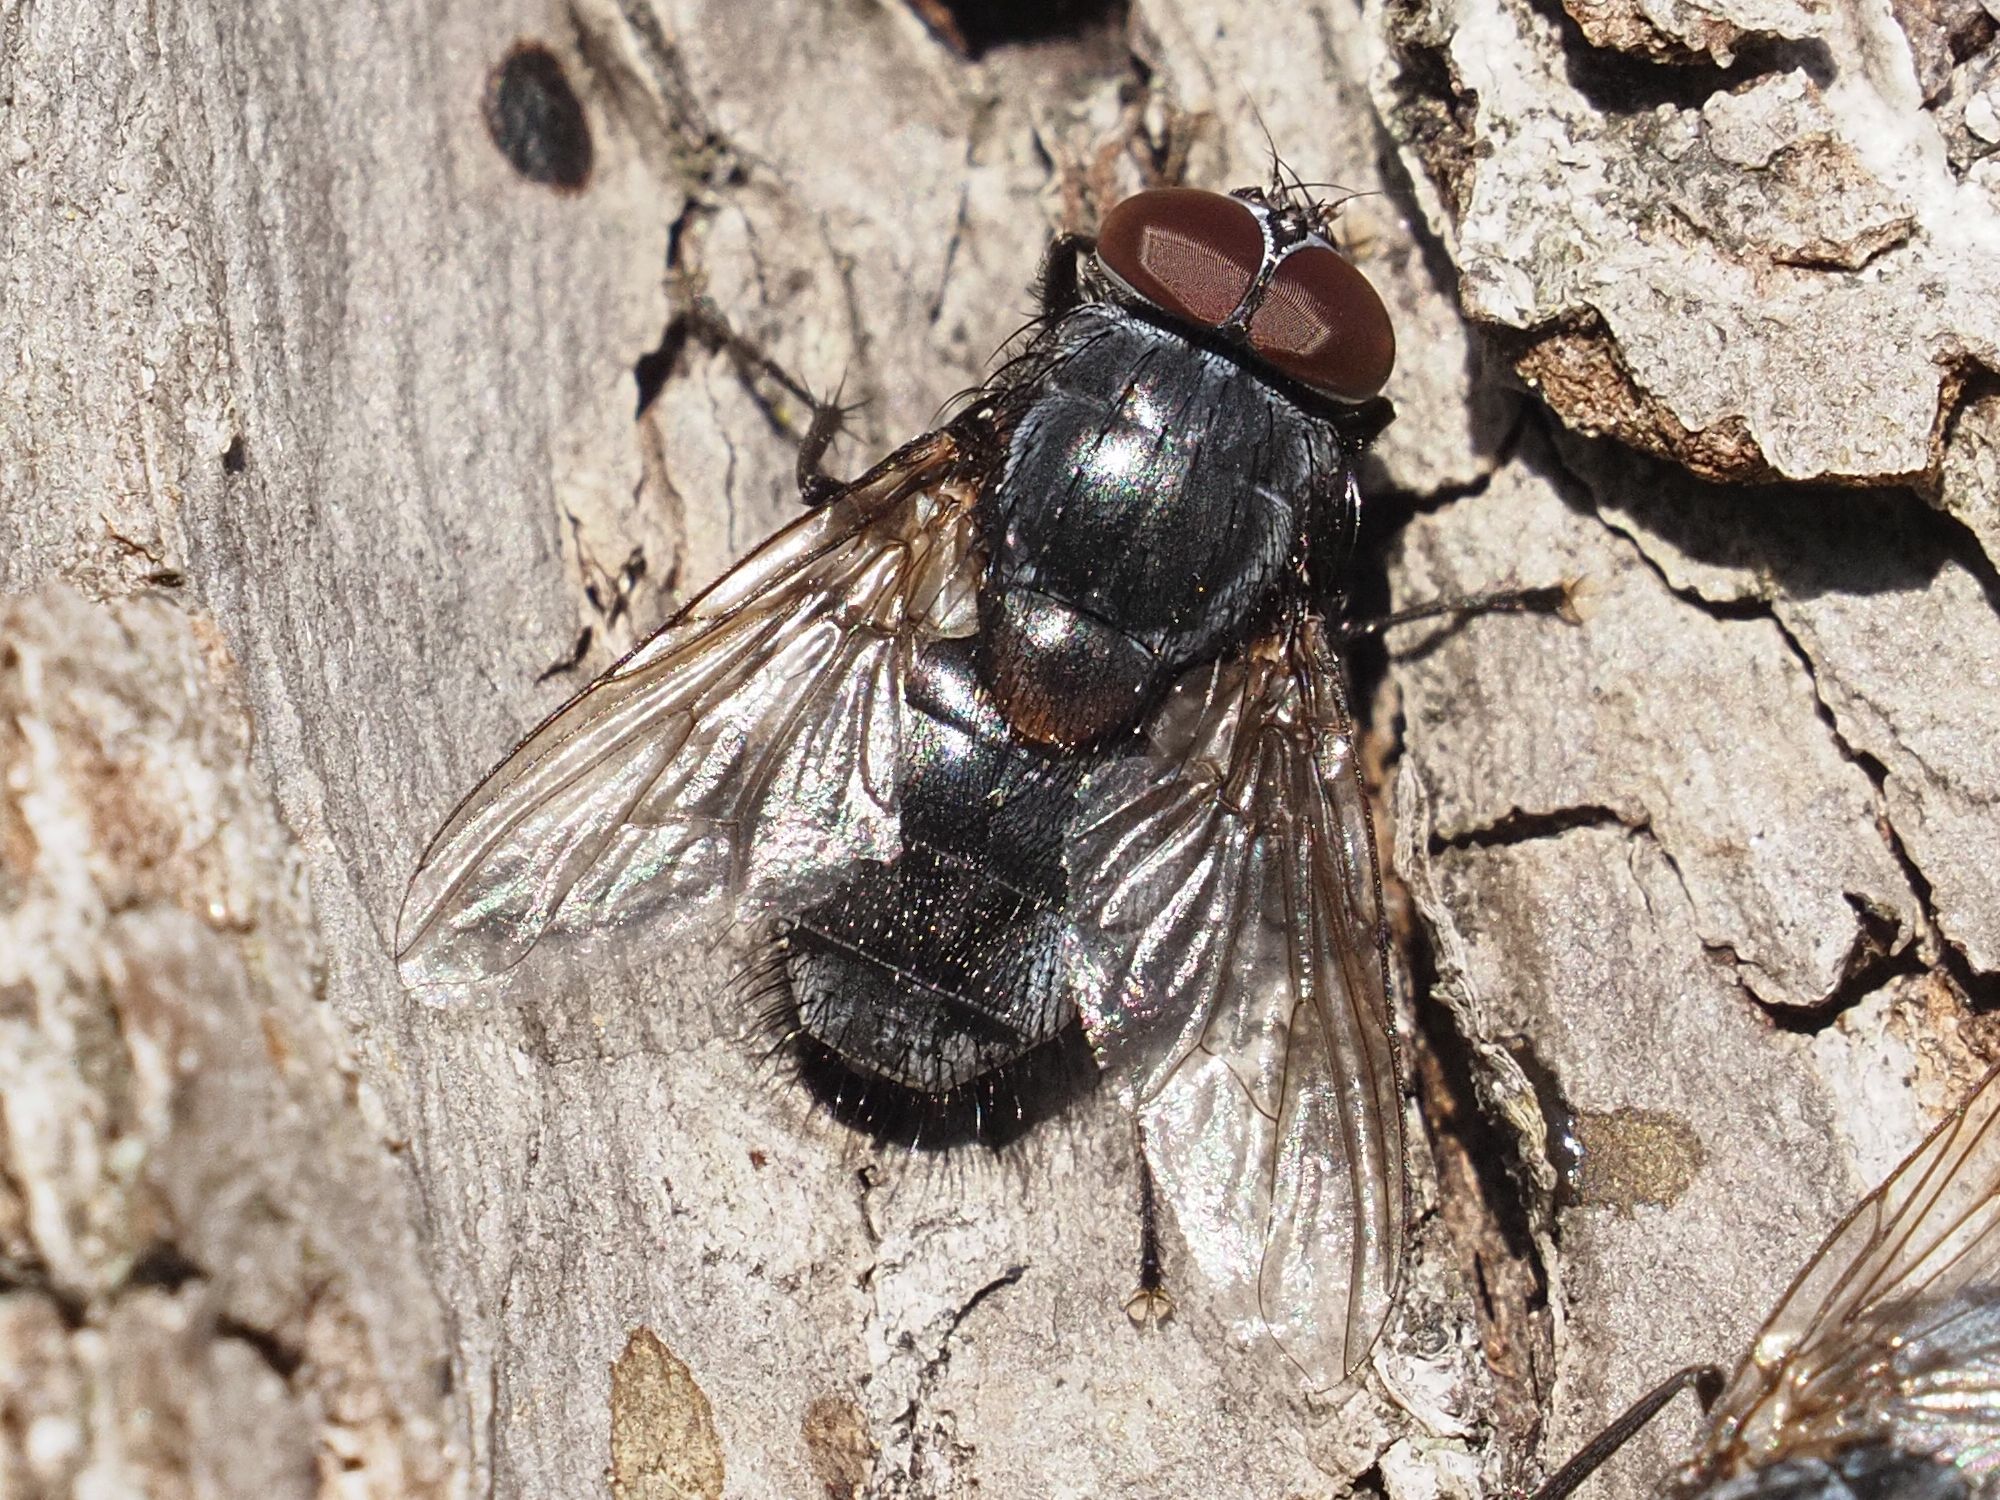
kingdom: Animalia
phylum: Arthropoda
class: Insecta
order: Diptera
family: Muscidae
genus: Muscina
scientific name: Muscina pascuorum
